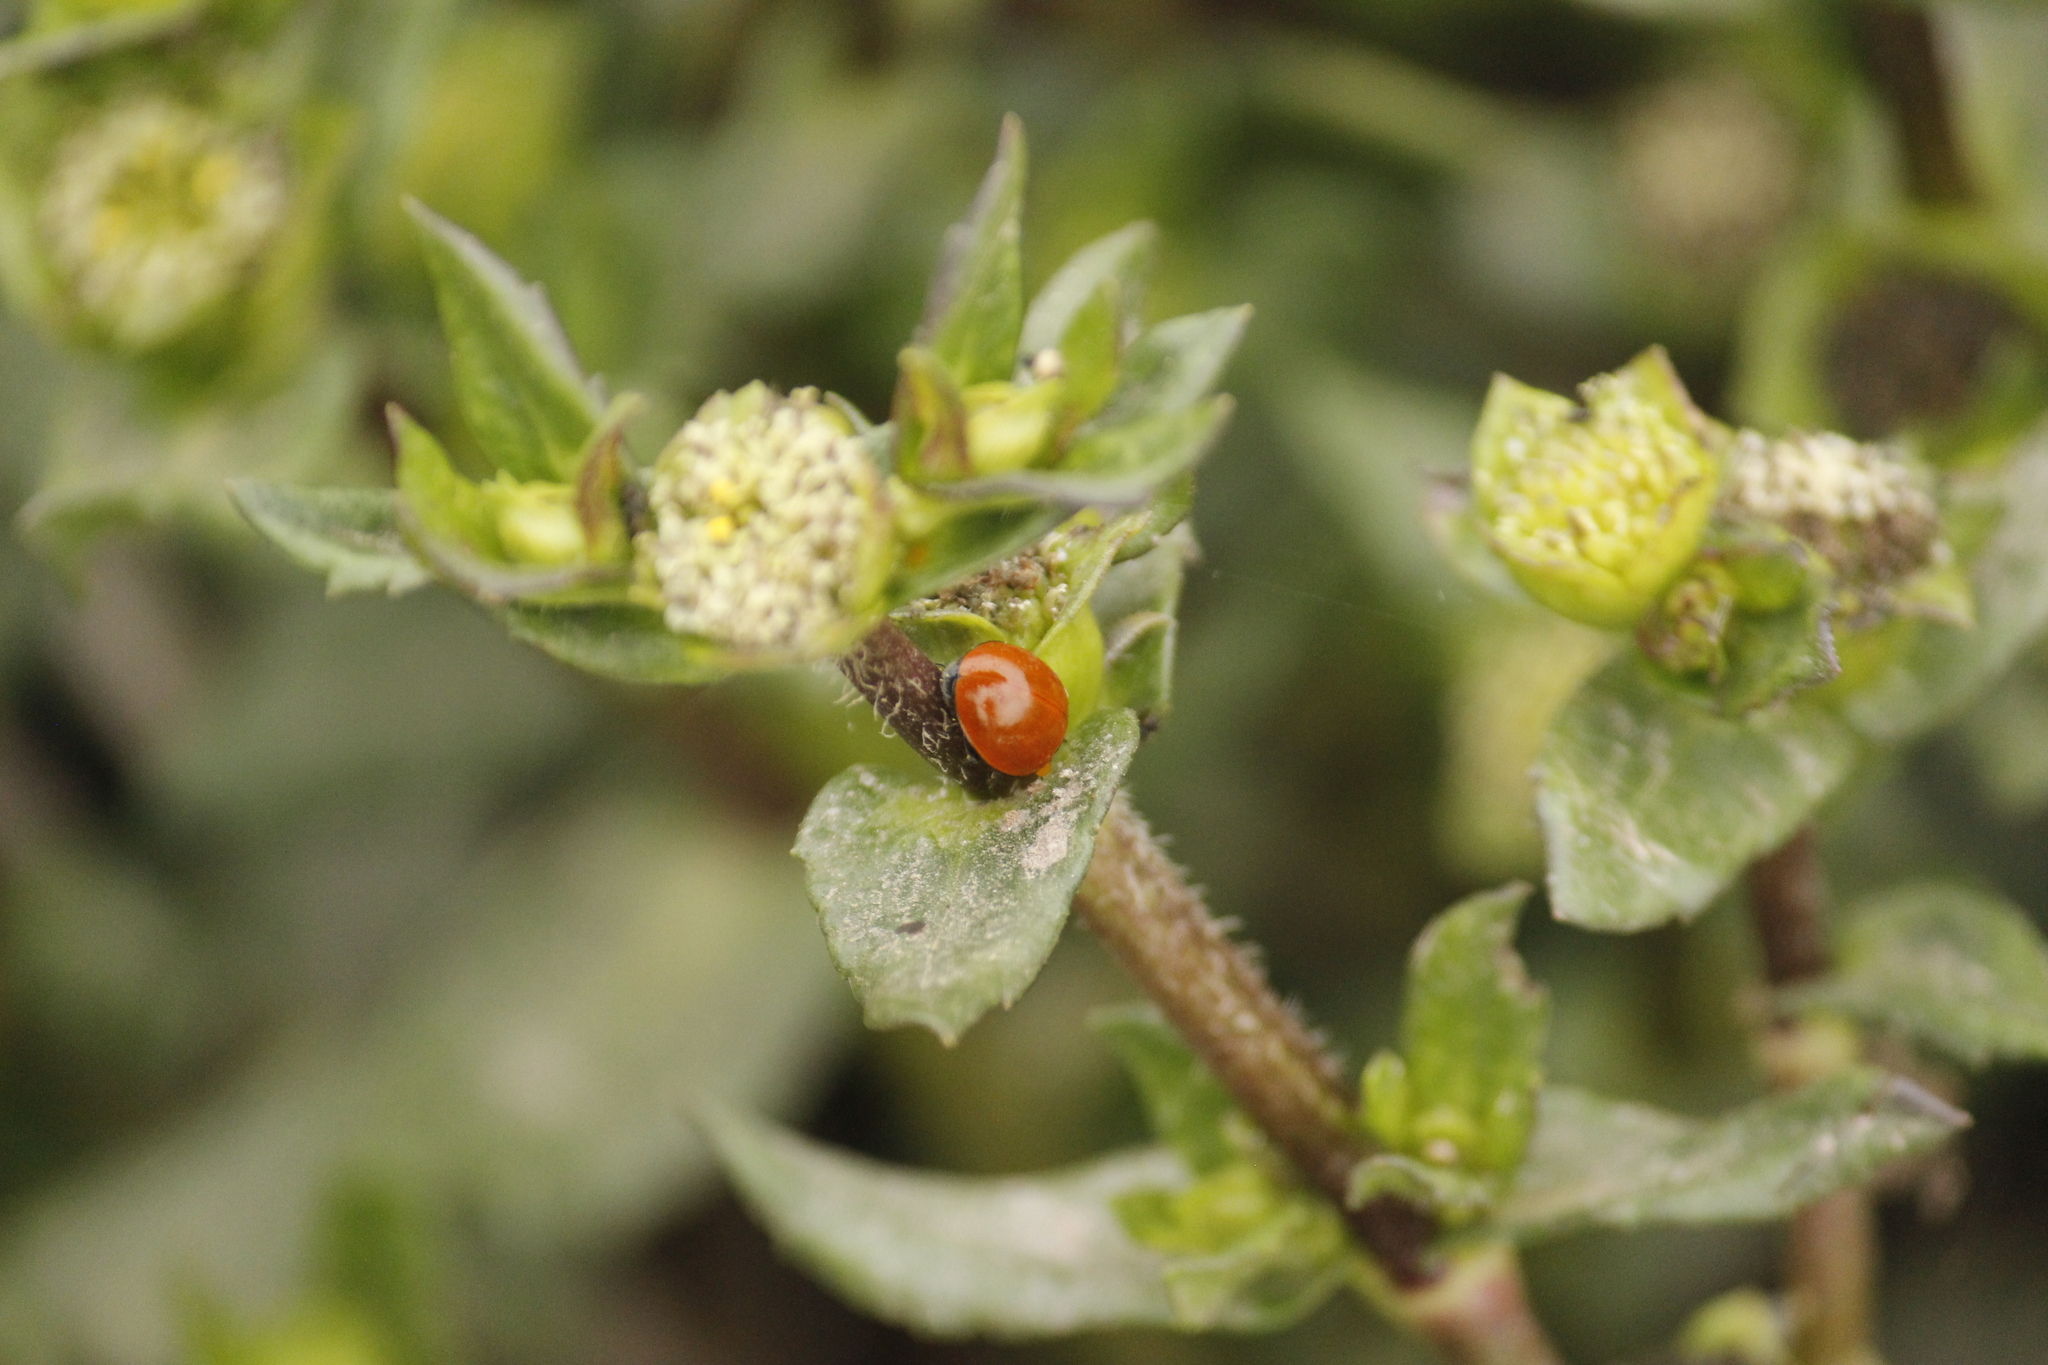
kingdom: Animalia
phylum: Arthropoda
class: Insecta
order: Coleoptera
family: Coccinellidae
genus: Cycloneda
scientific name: Cycloneda sanguinea
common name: Ladybird beetle
